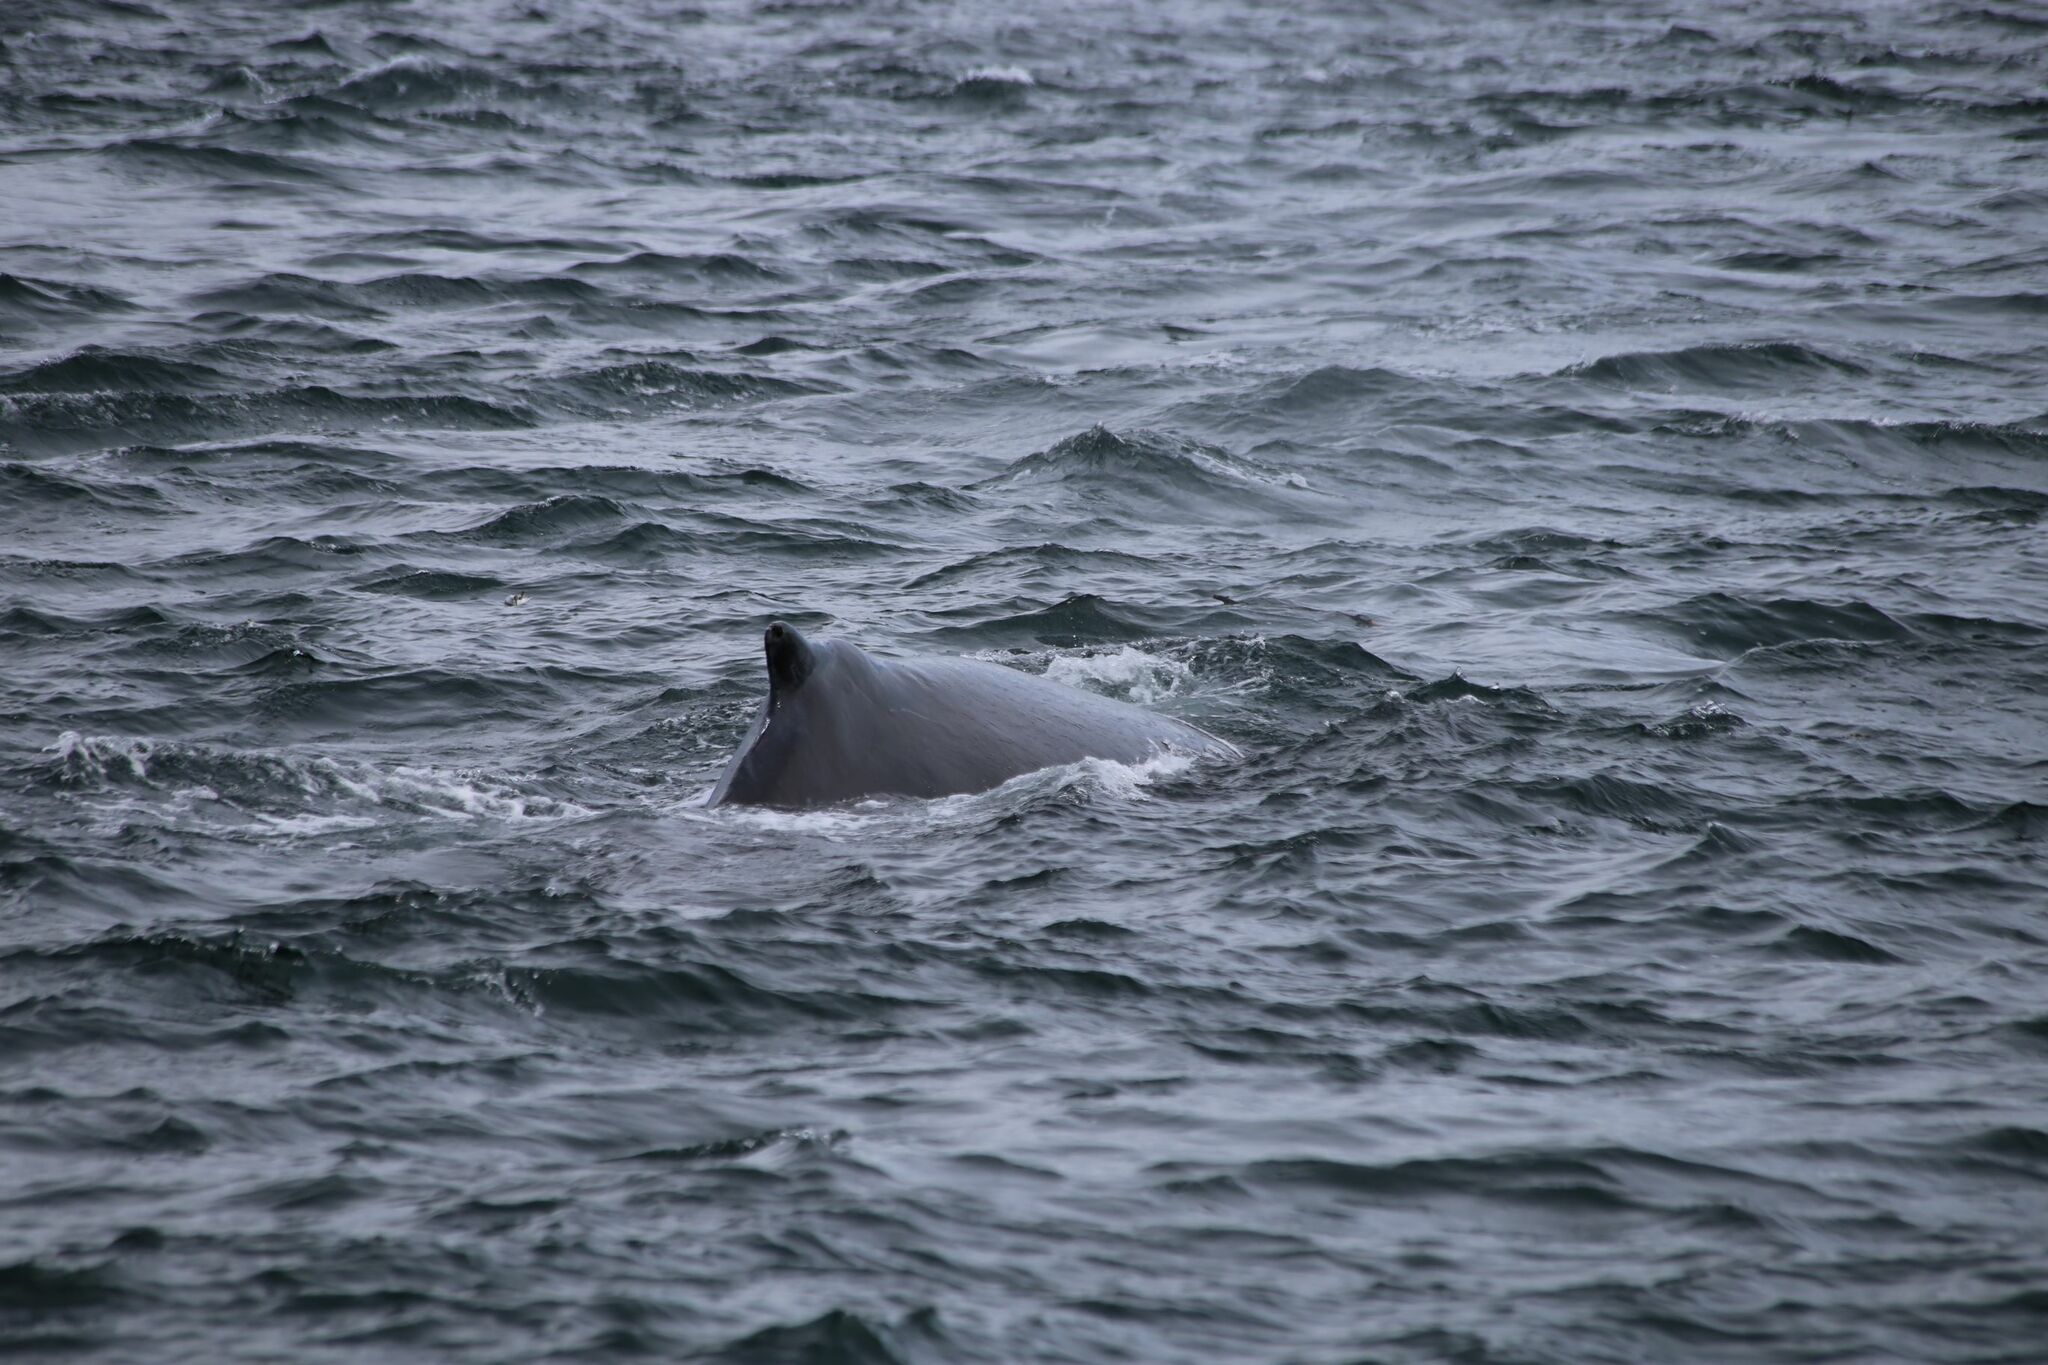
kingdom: Animalia
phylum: Chordata
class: Mammalia
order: Cetacea
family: Balaenopteridae
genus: Megaptera
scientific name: Megaptera novaeangliae
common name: Humpback whale
